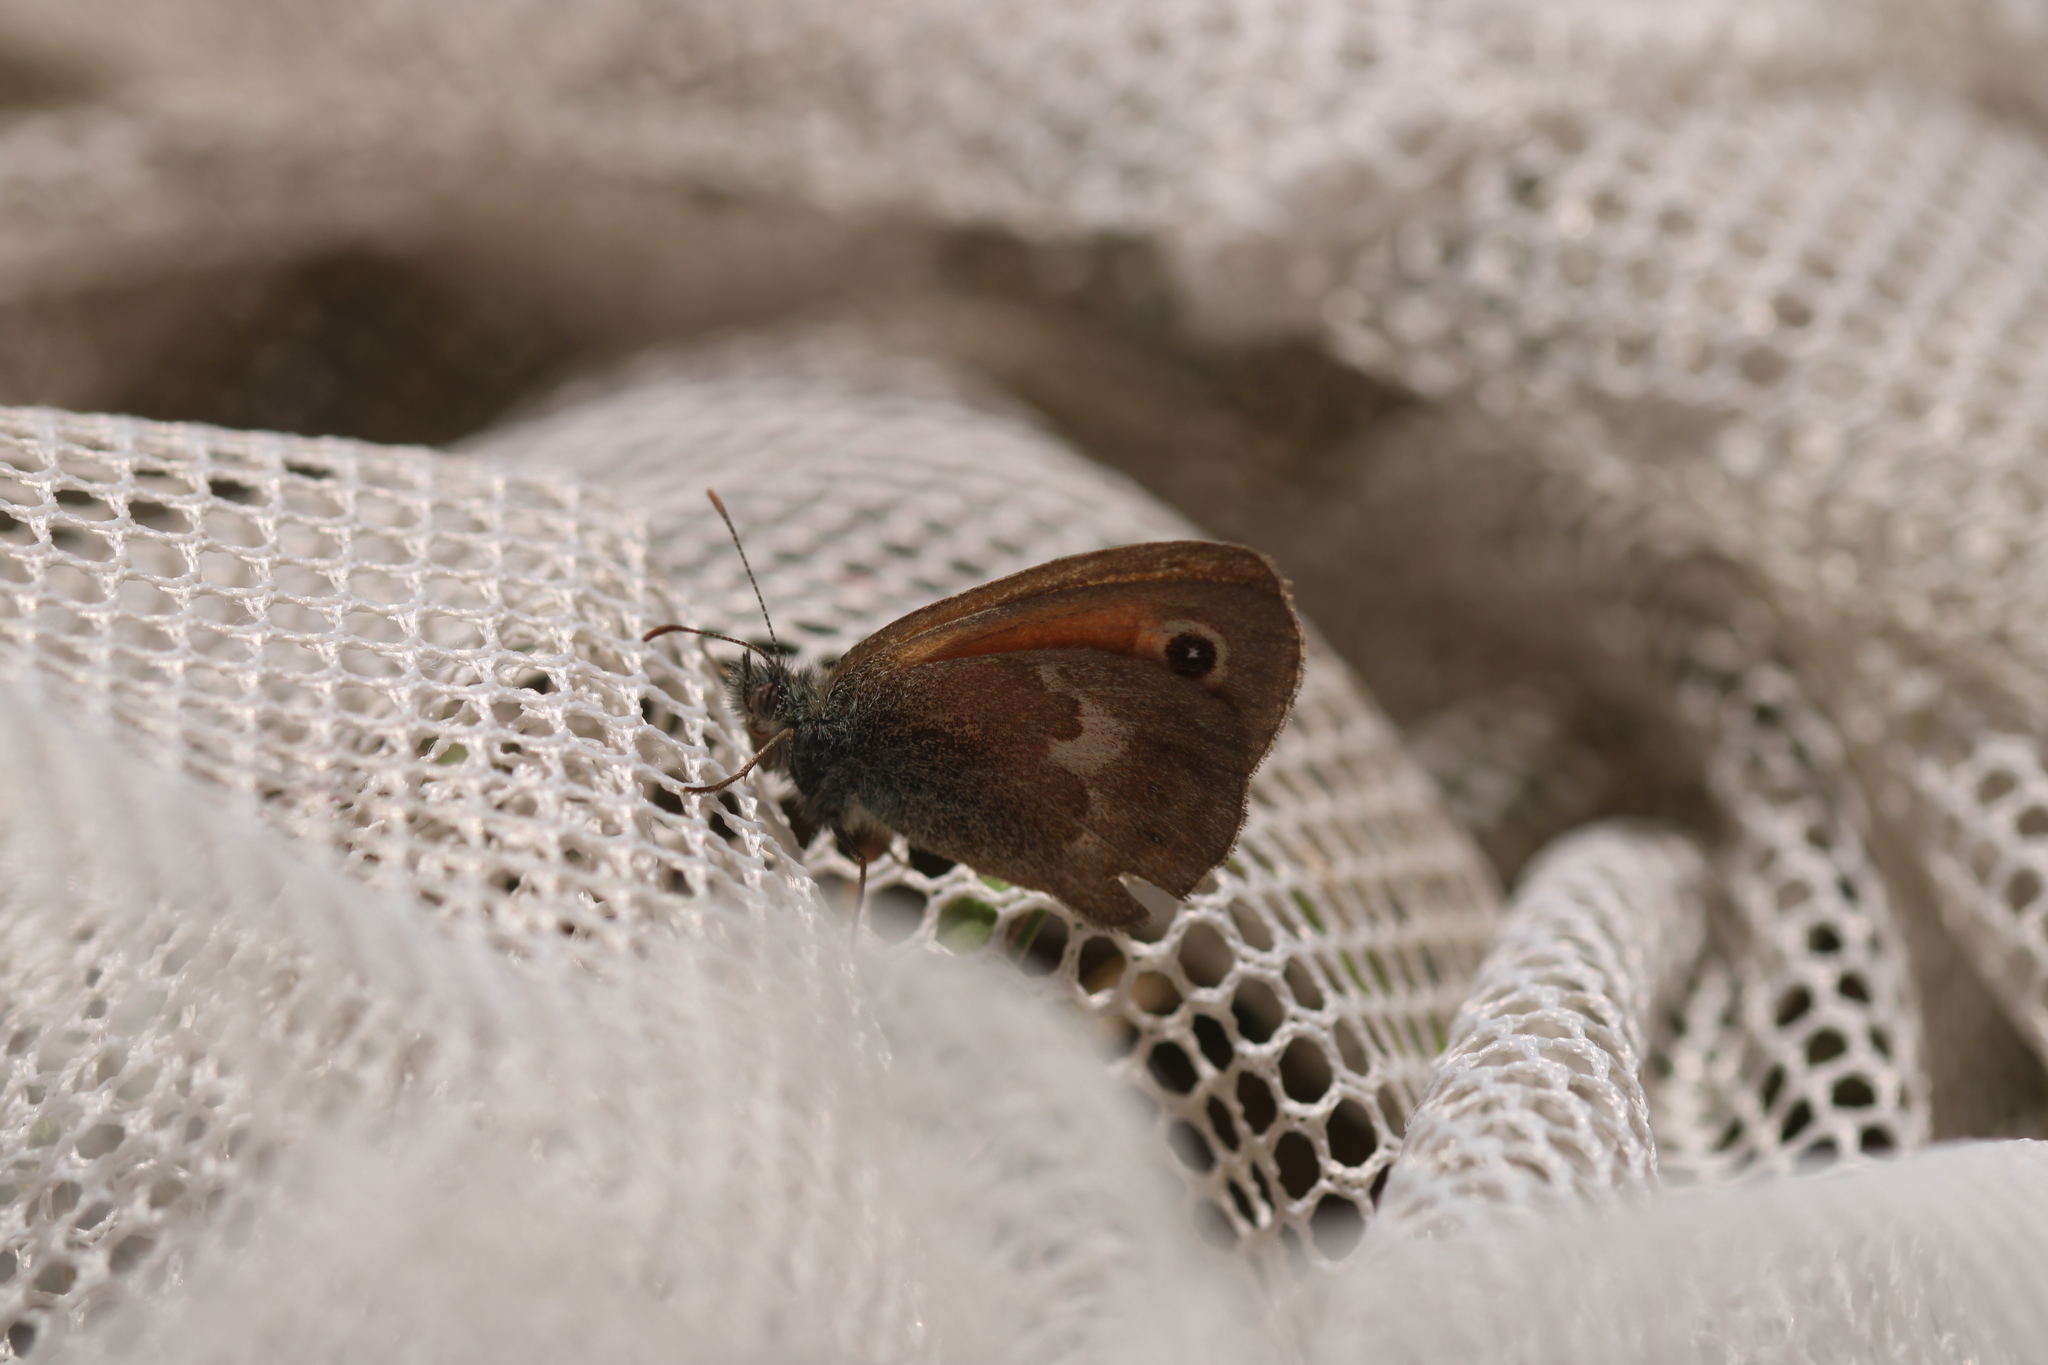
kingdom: Animalia
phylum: Arthropoda
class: Insecta
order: Lepidoptera
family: Nymphalidae
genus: Coenonympha
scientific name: Coenonympha pamphilus
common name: Small heath
